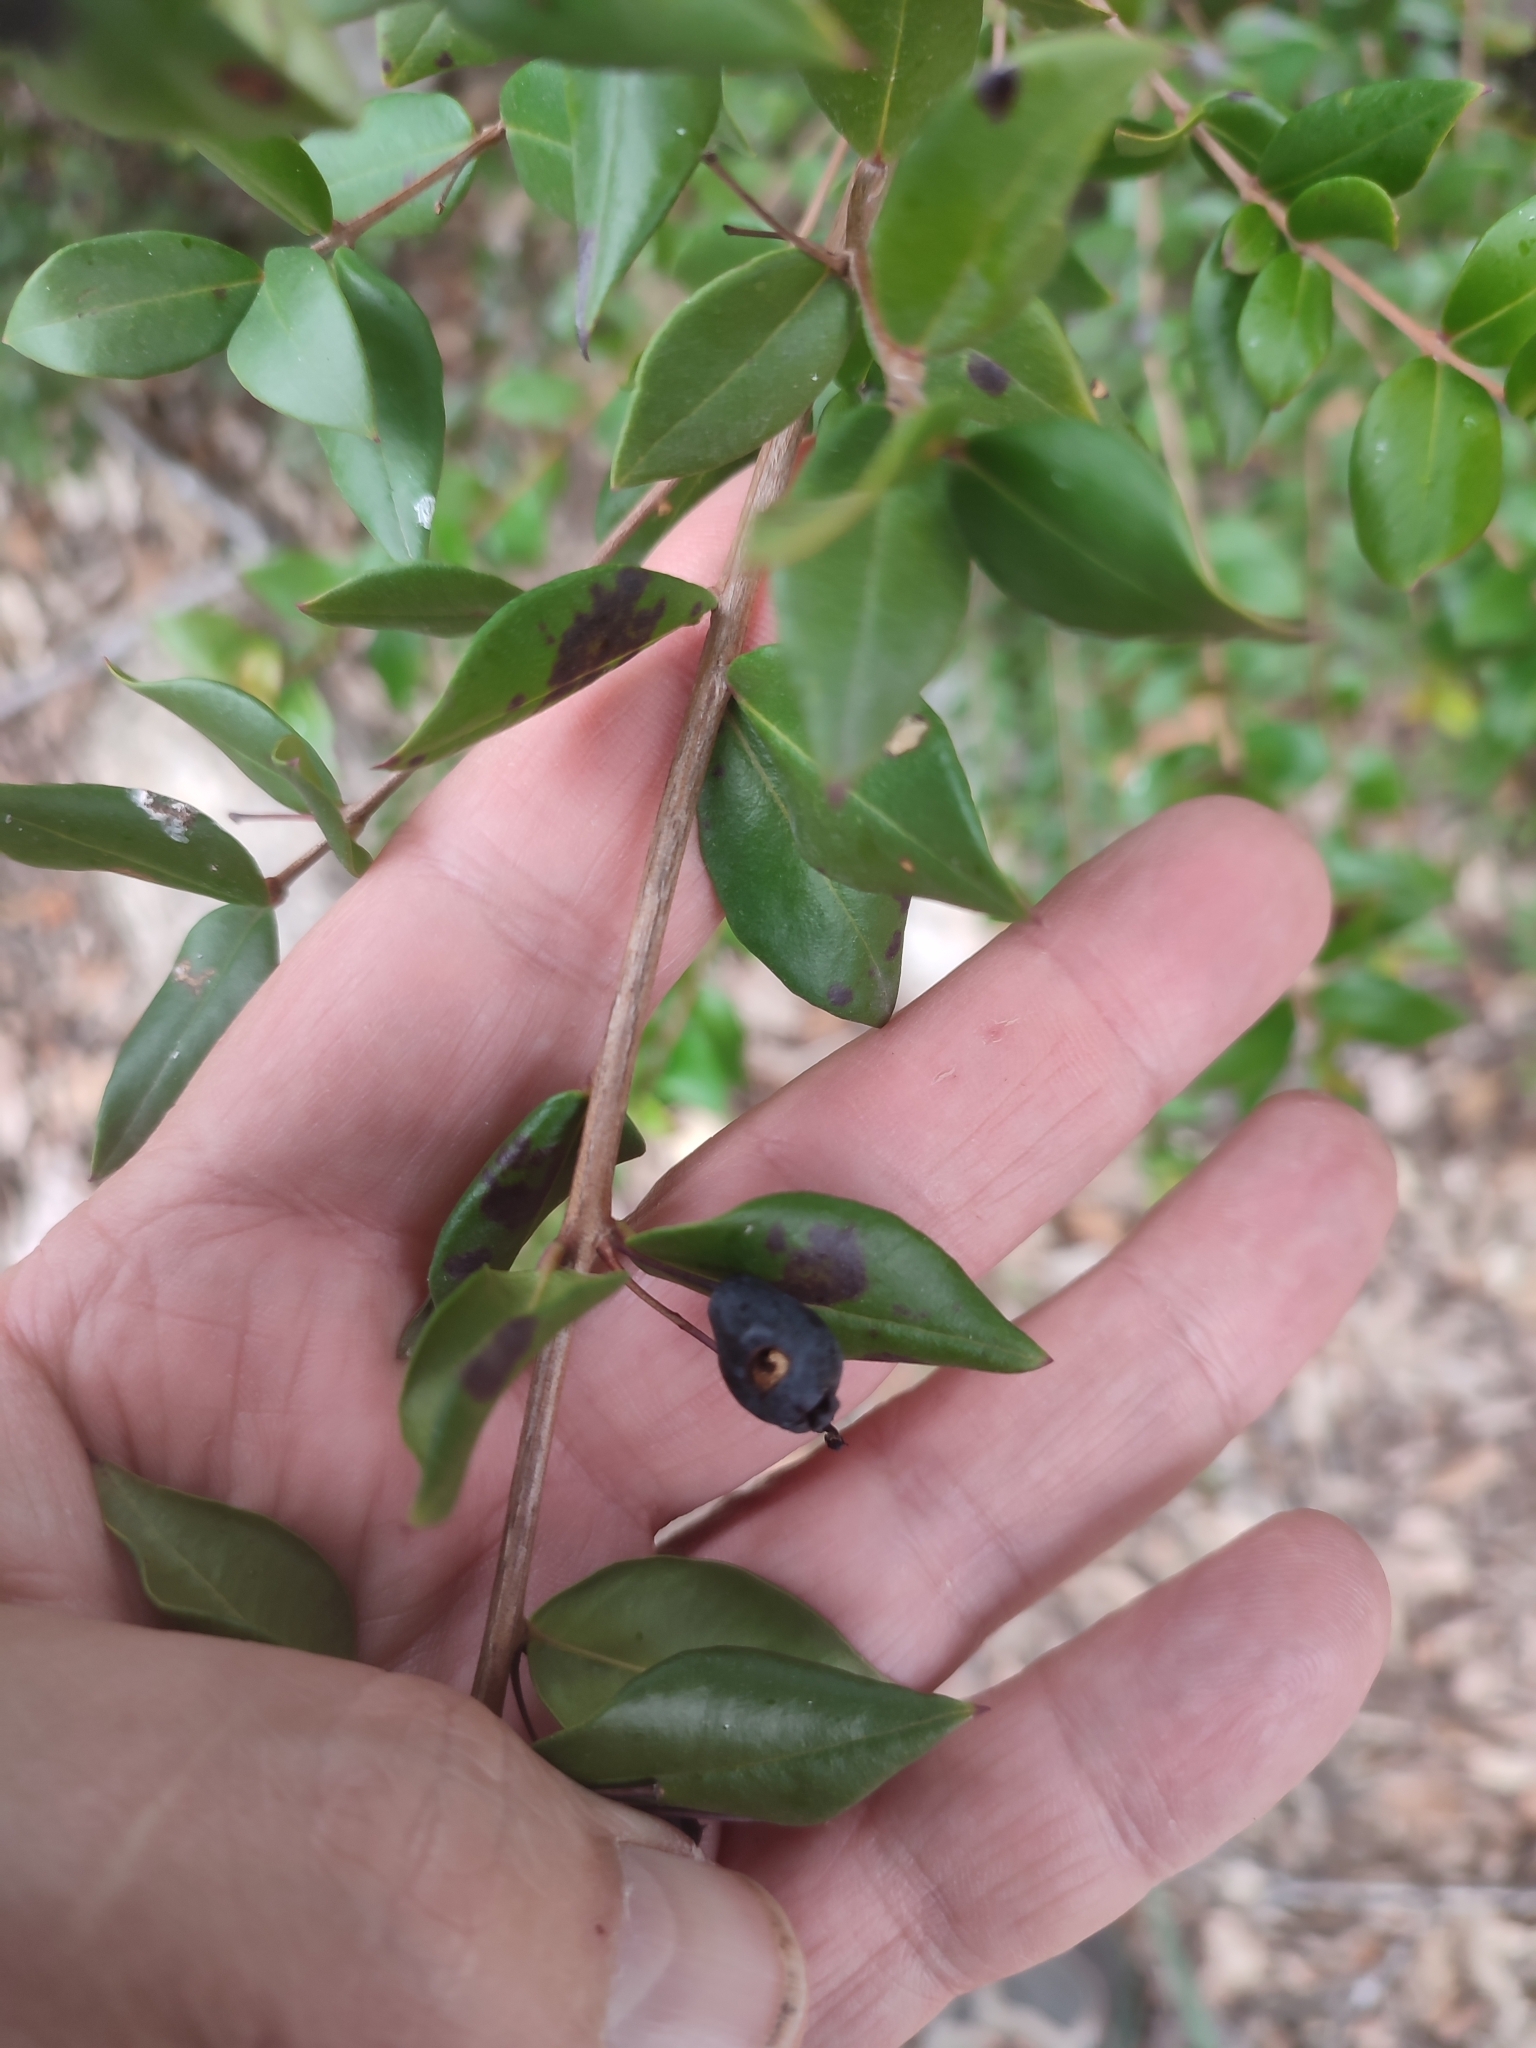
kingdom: Plantae
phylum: Tracheophyta
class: Magnoliopsida
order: Myrtales
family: Myrtaceae
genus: Myrtus
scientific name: Myrtus communis
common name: Myrtle
